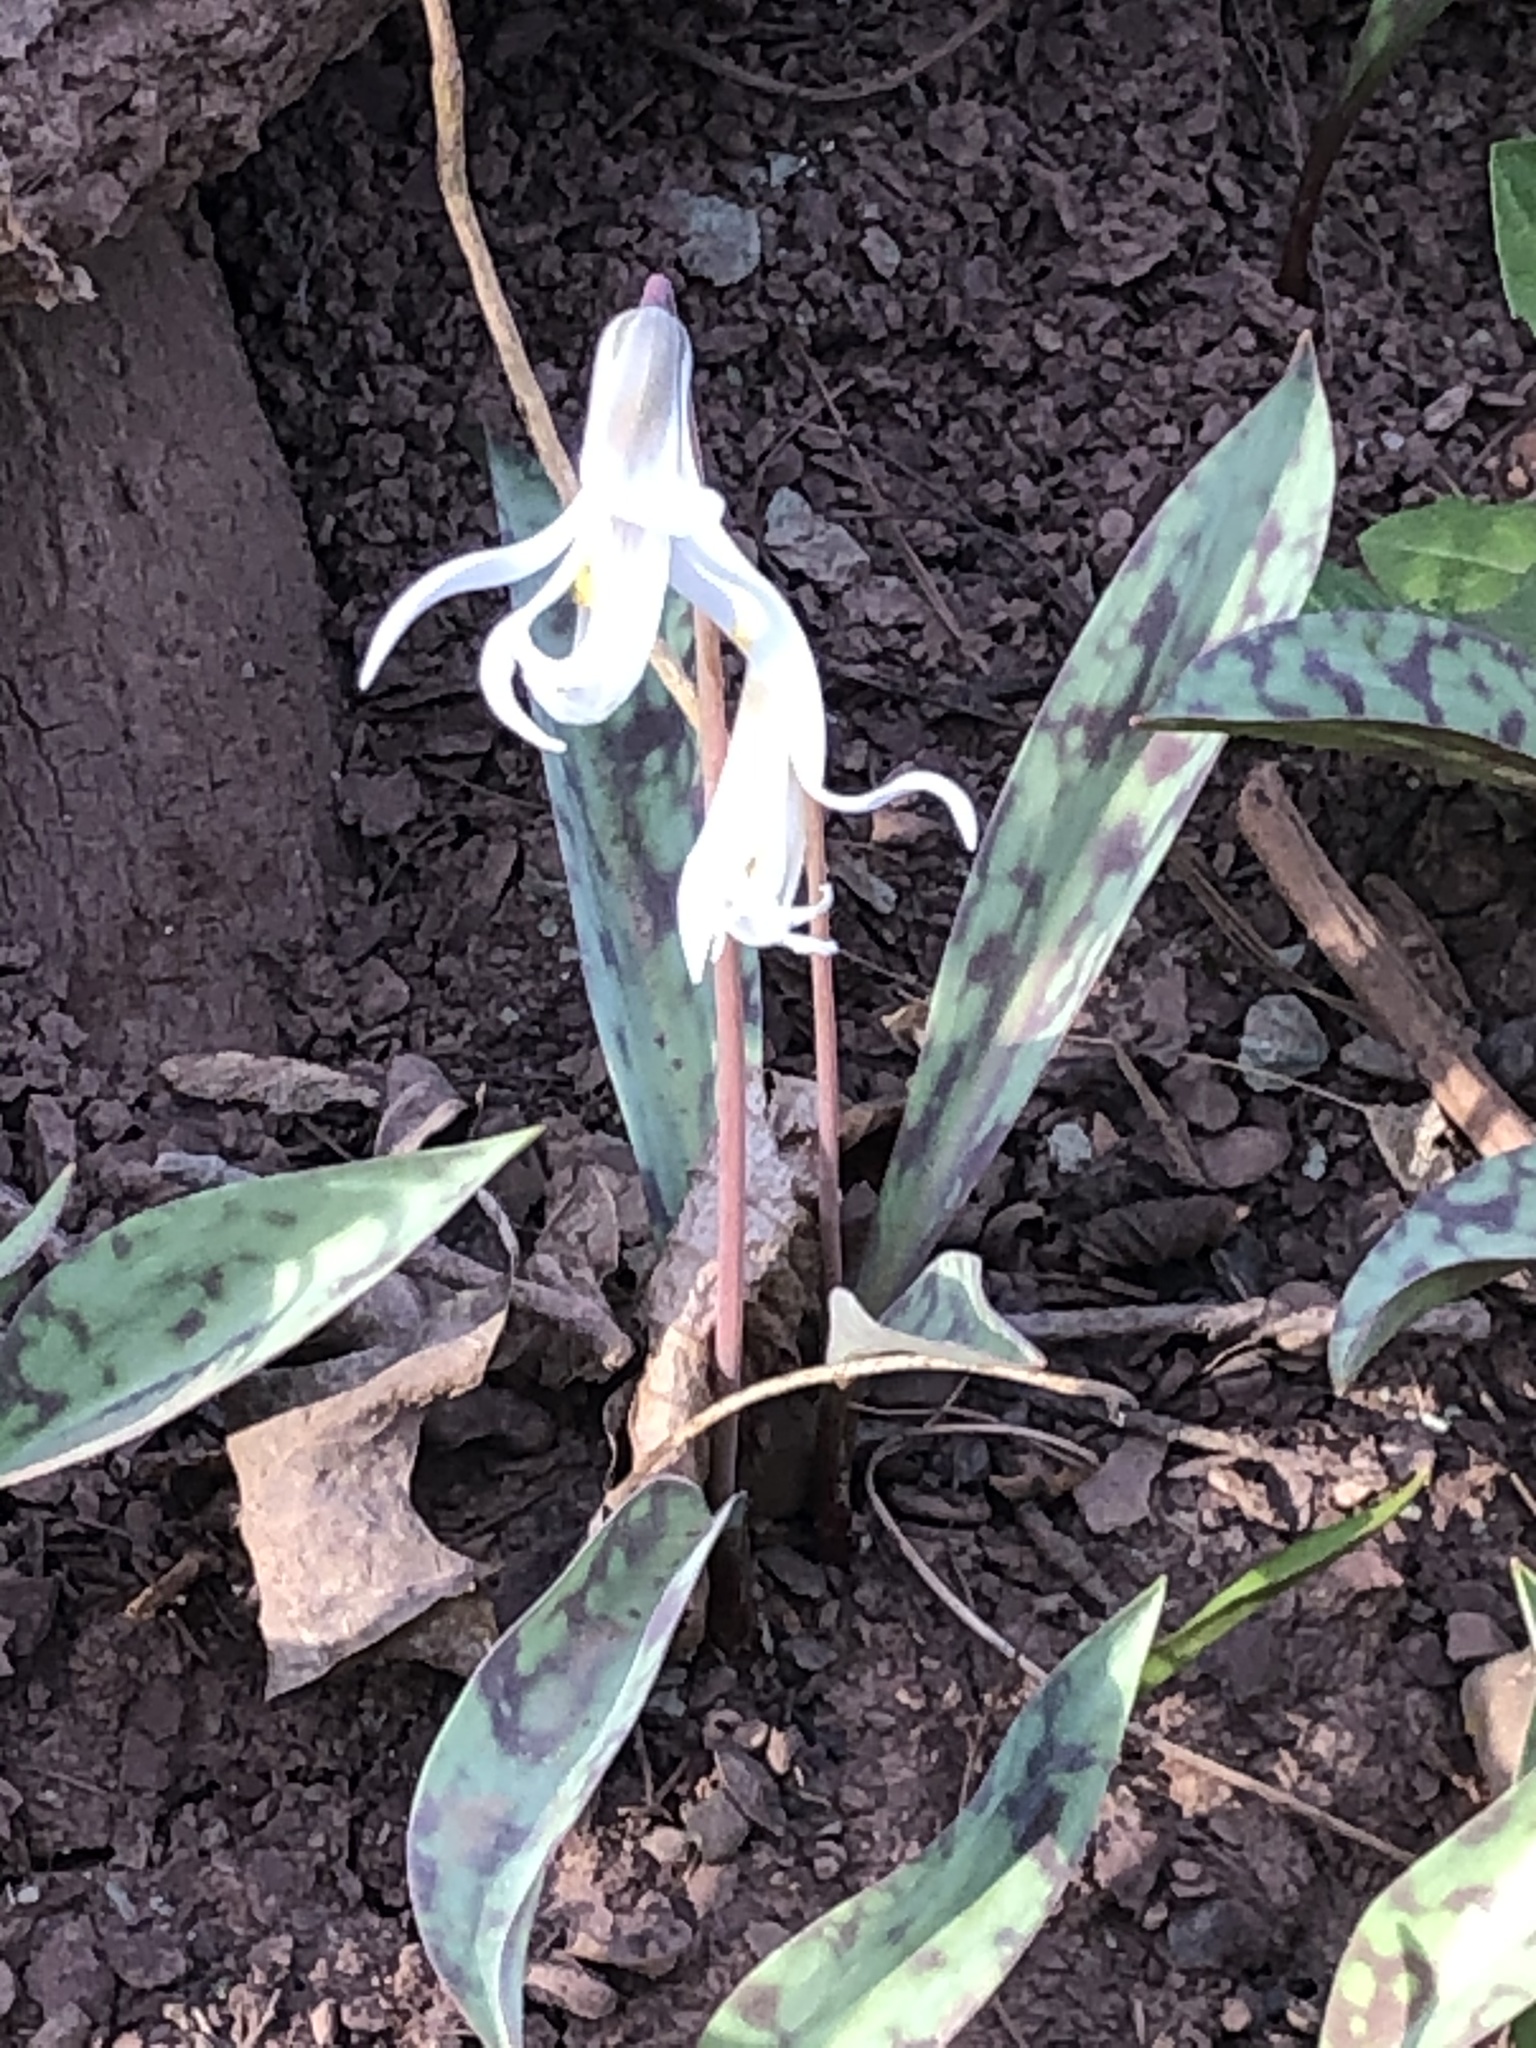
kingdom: Plantae
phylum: Tracheophyta
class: Liliopsida
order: Liliales
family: Liliaceae
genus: Erythronium
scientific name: Erythronium albidum
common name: White trout-lily
